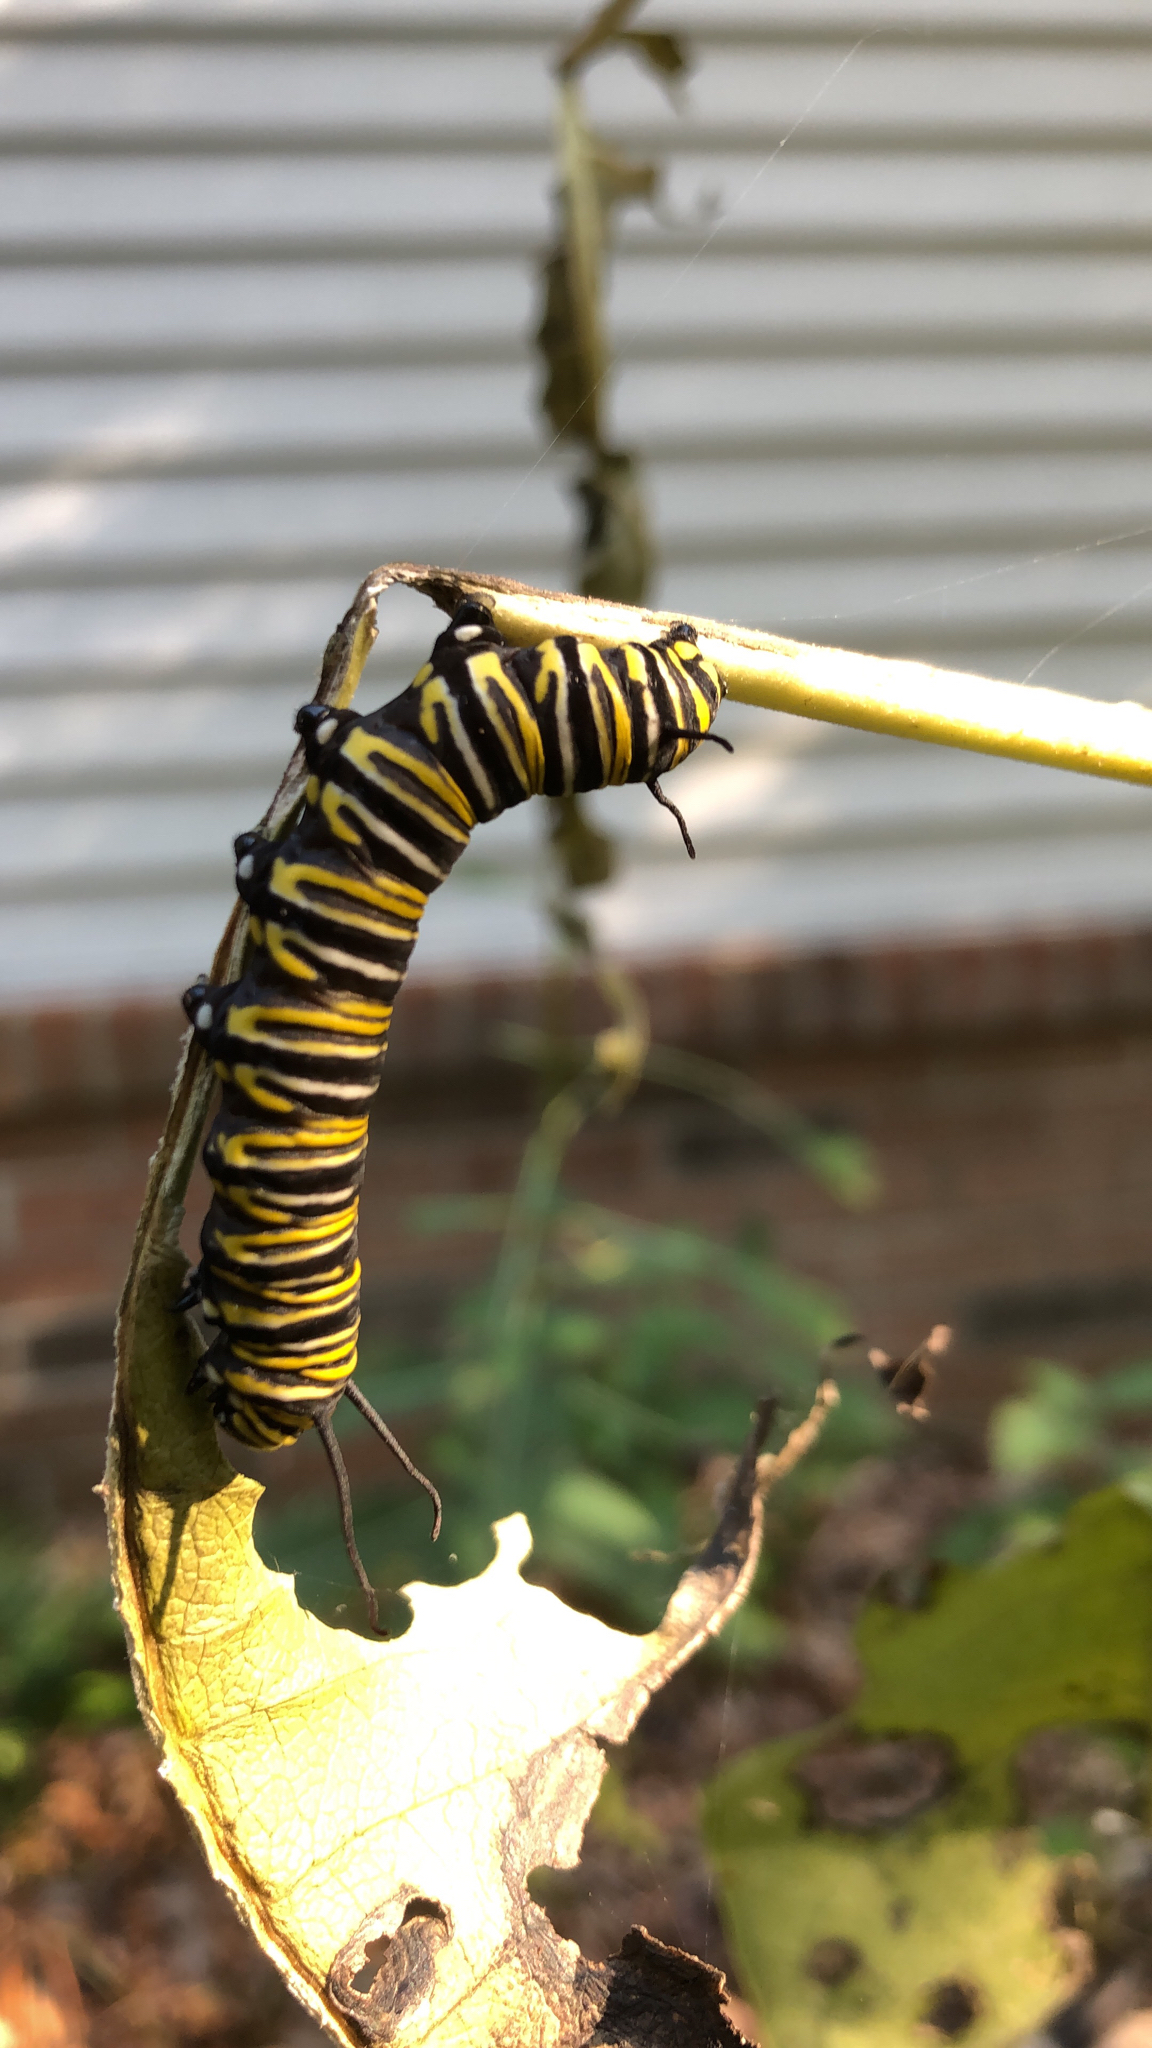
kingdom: Animalia
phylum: Arthropoda
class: Insecta
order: Lepidoptera
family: Nymphalidae
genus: Danaus
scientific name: Danaus plexippus
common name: Monarch
